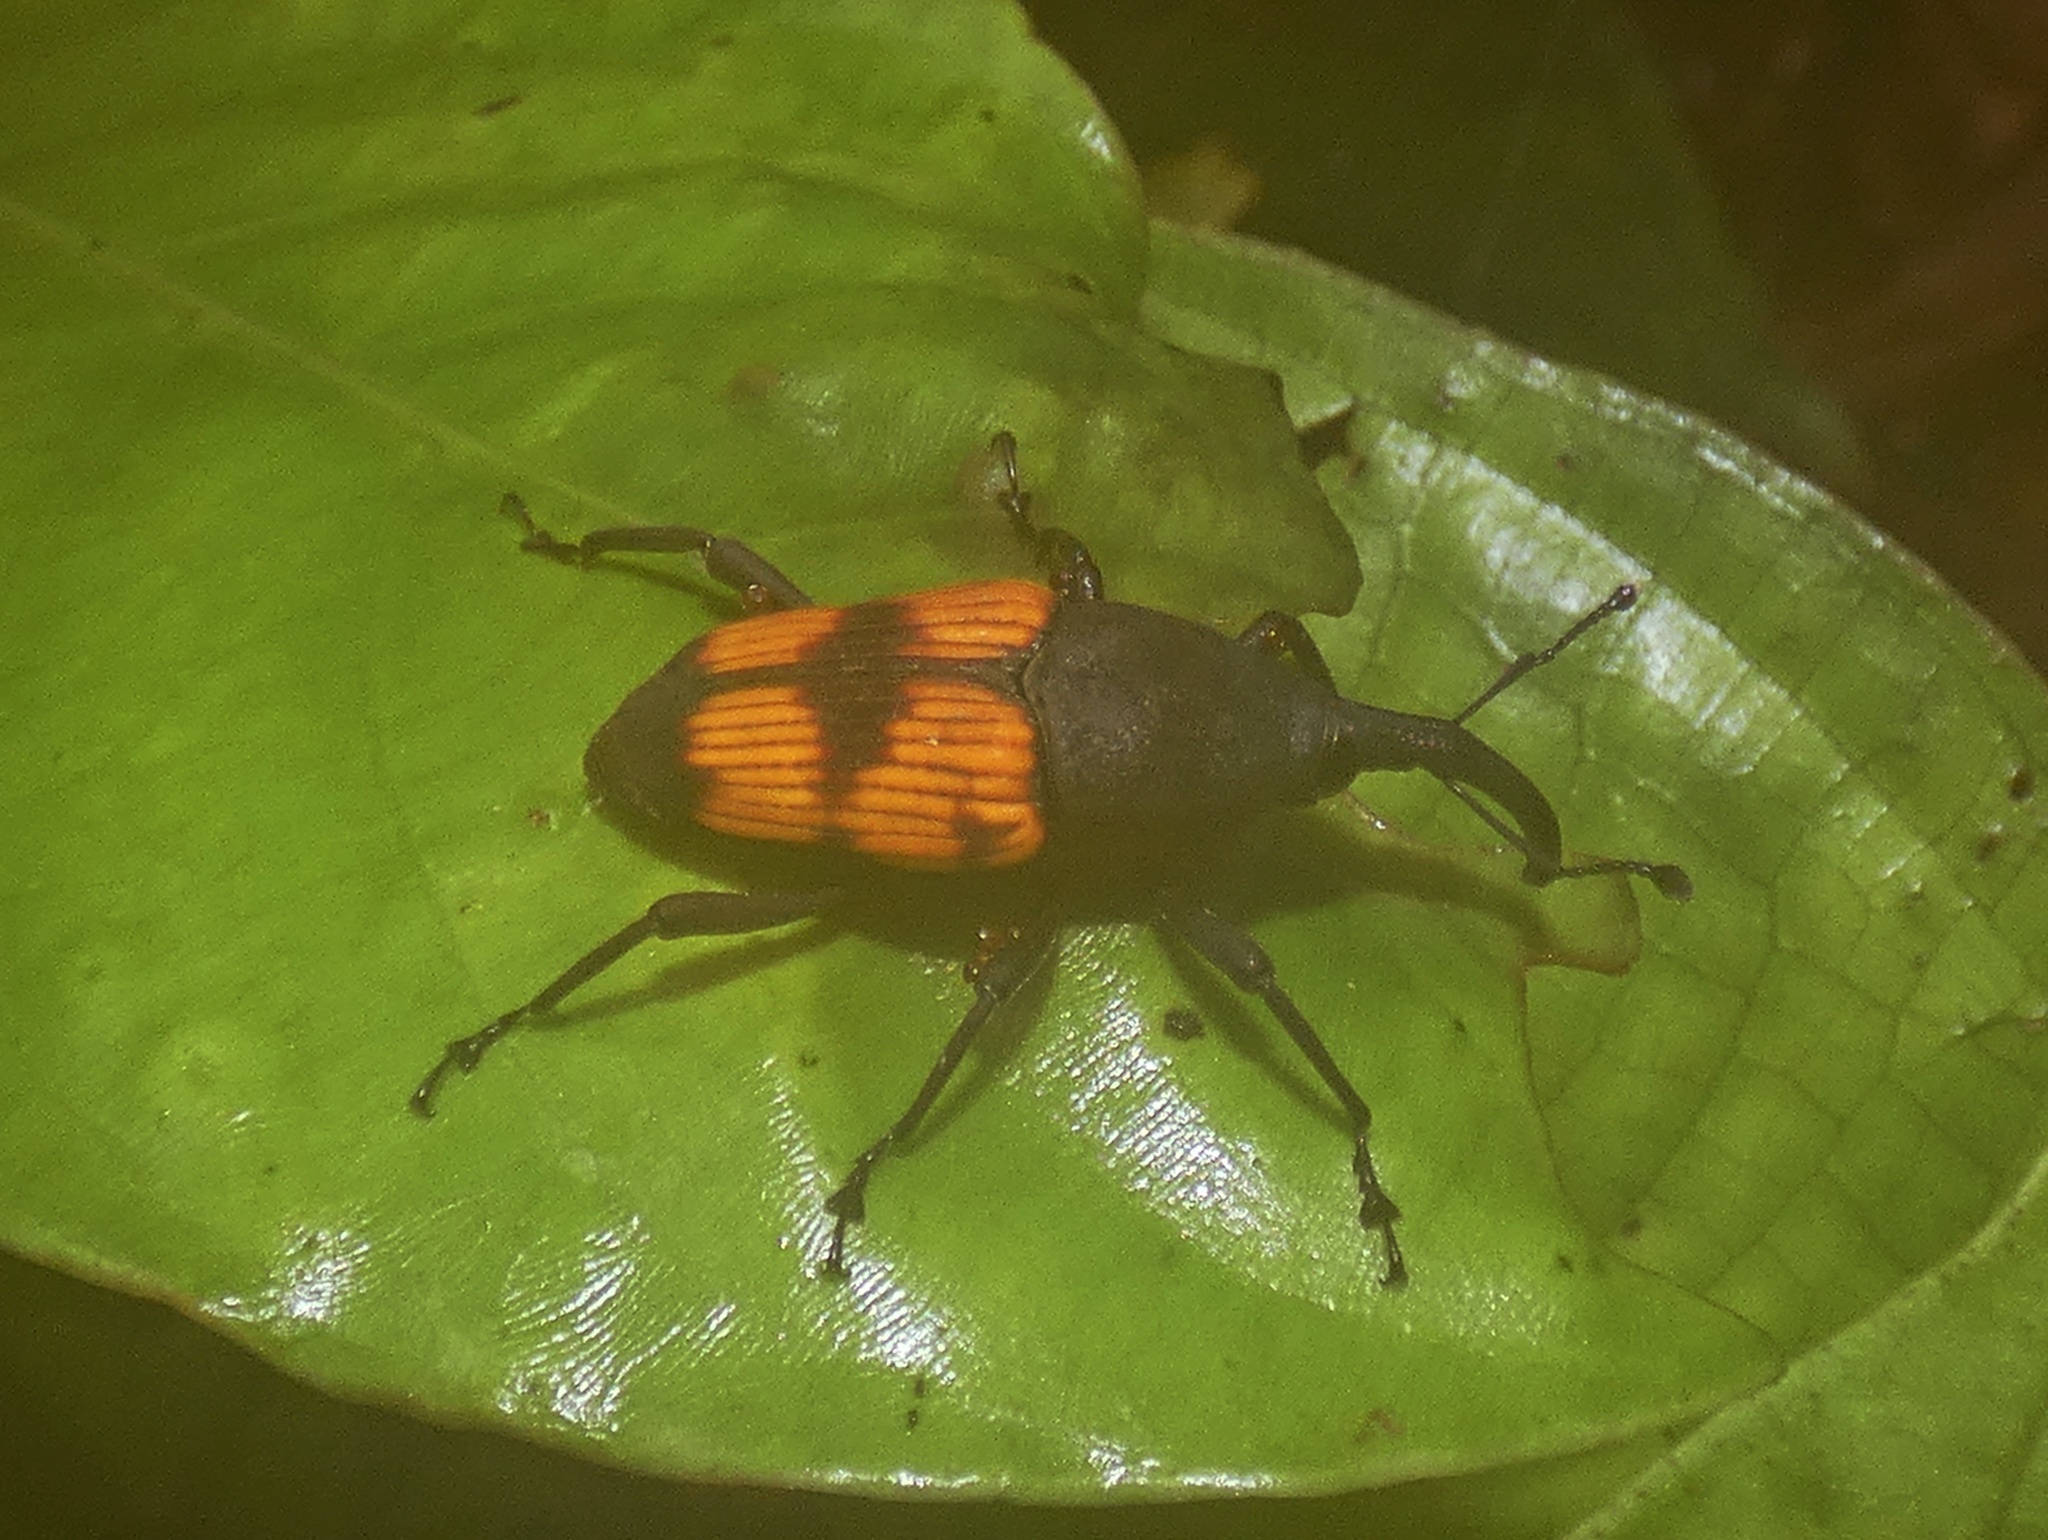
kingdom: Animalia
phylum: Arthropoda
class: Insecta
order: Coleoptera
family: Dryophthoridae
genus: Cactophagus
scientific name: Cactophagus rubrovariegatus
